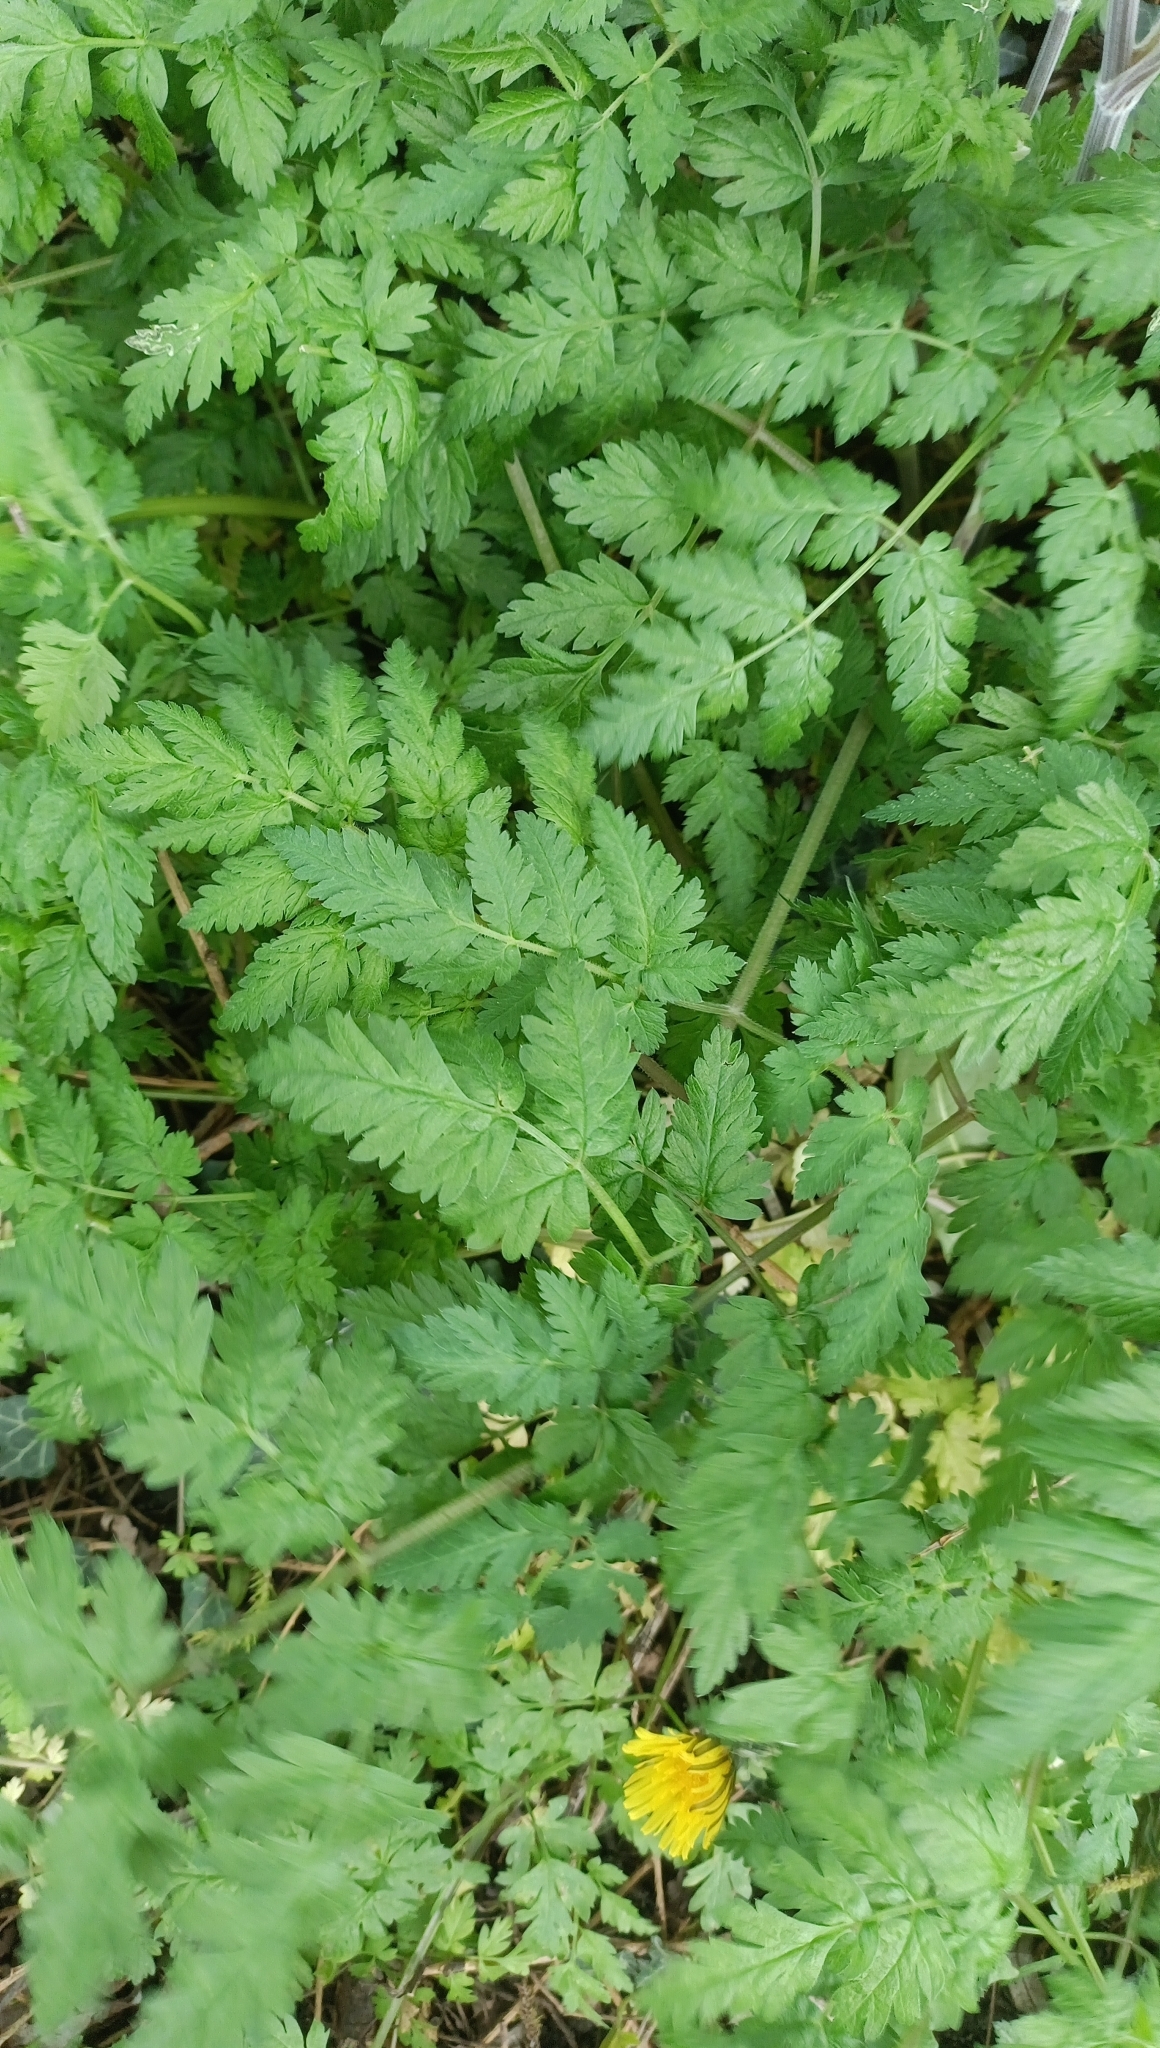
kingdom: Plantae
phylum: Tracheophyta
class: Magnoliopsida
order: Apiales
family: Apiaceae
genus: Anthriscus
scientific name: Anthriscus sylvestris
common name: Cow parsley
